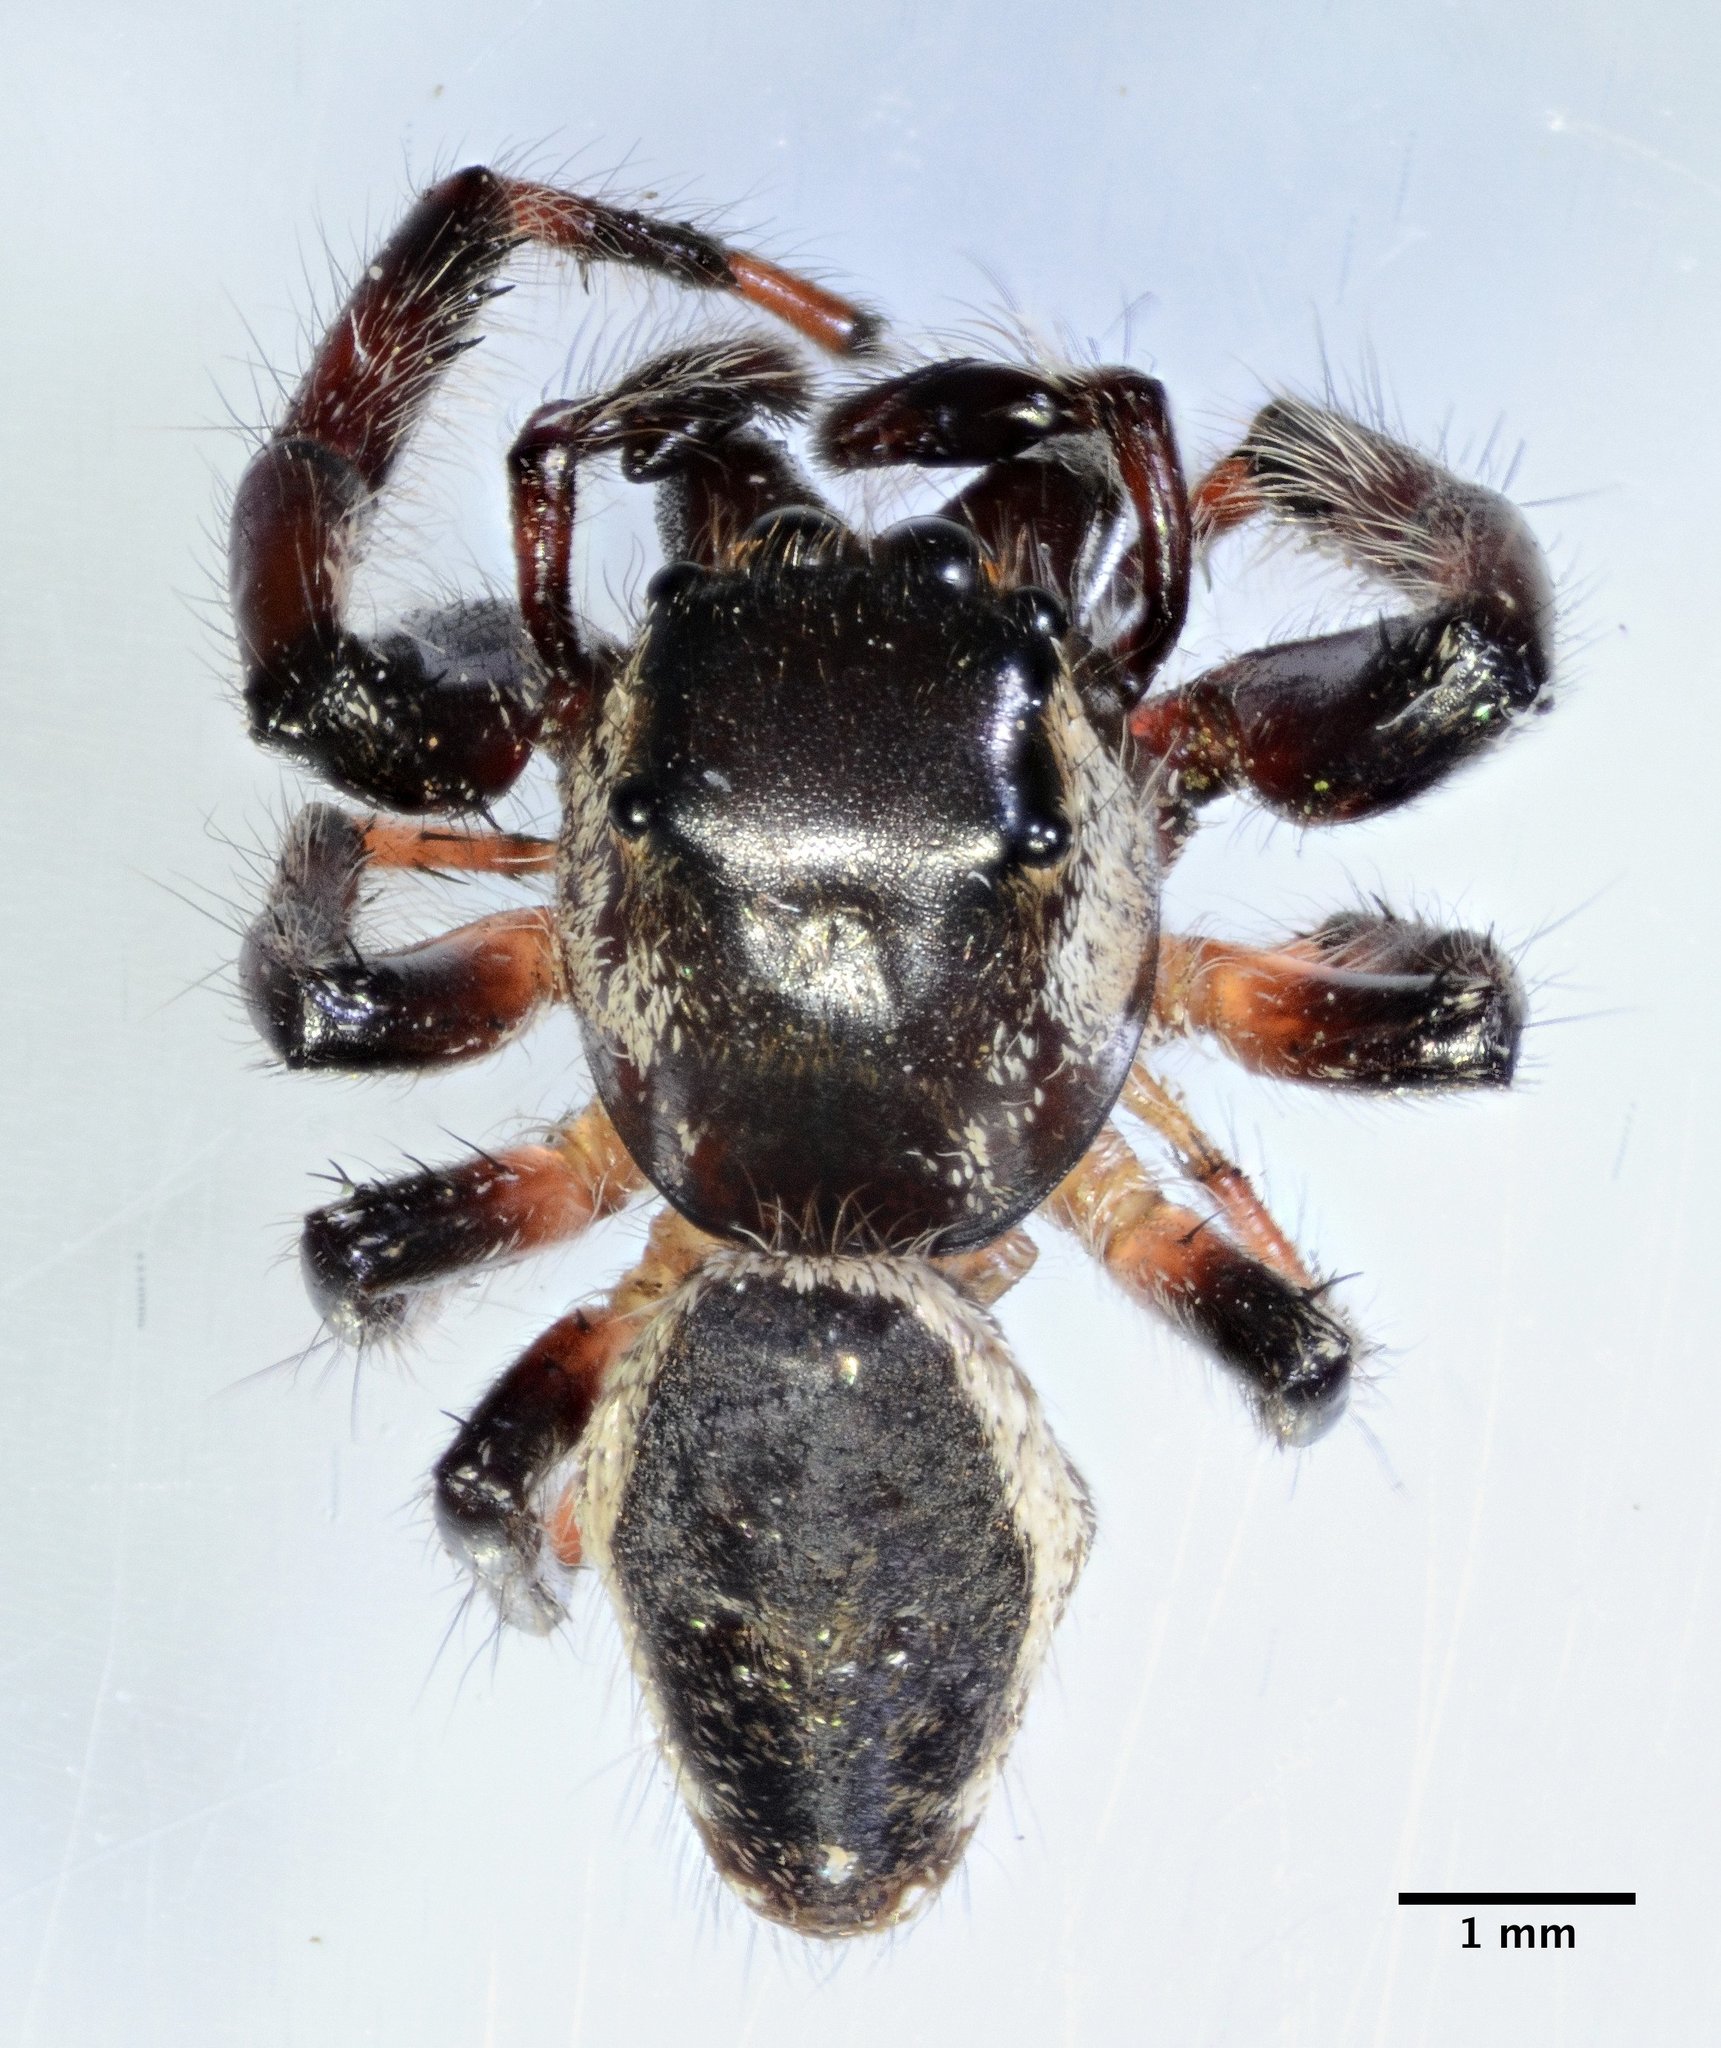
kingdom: Animalia
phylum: Arthropoda
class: Arachnida
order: Araneae
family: Salticidae
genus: Eris
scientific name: Eris militaris
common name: Bronze jumper
